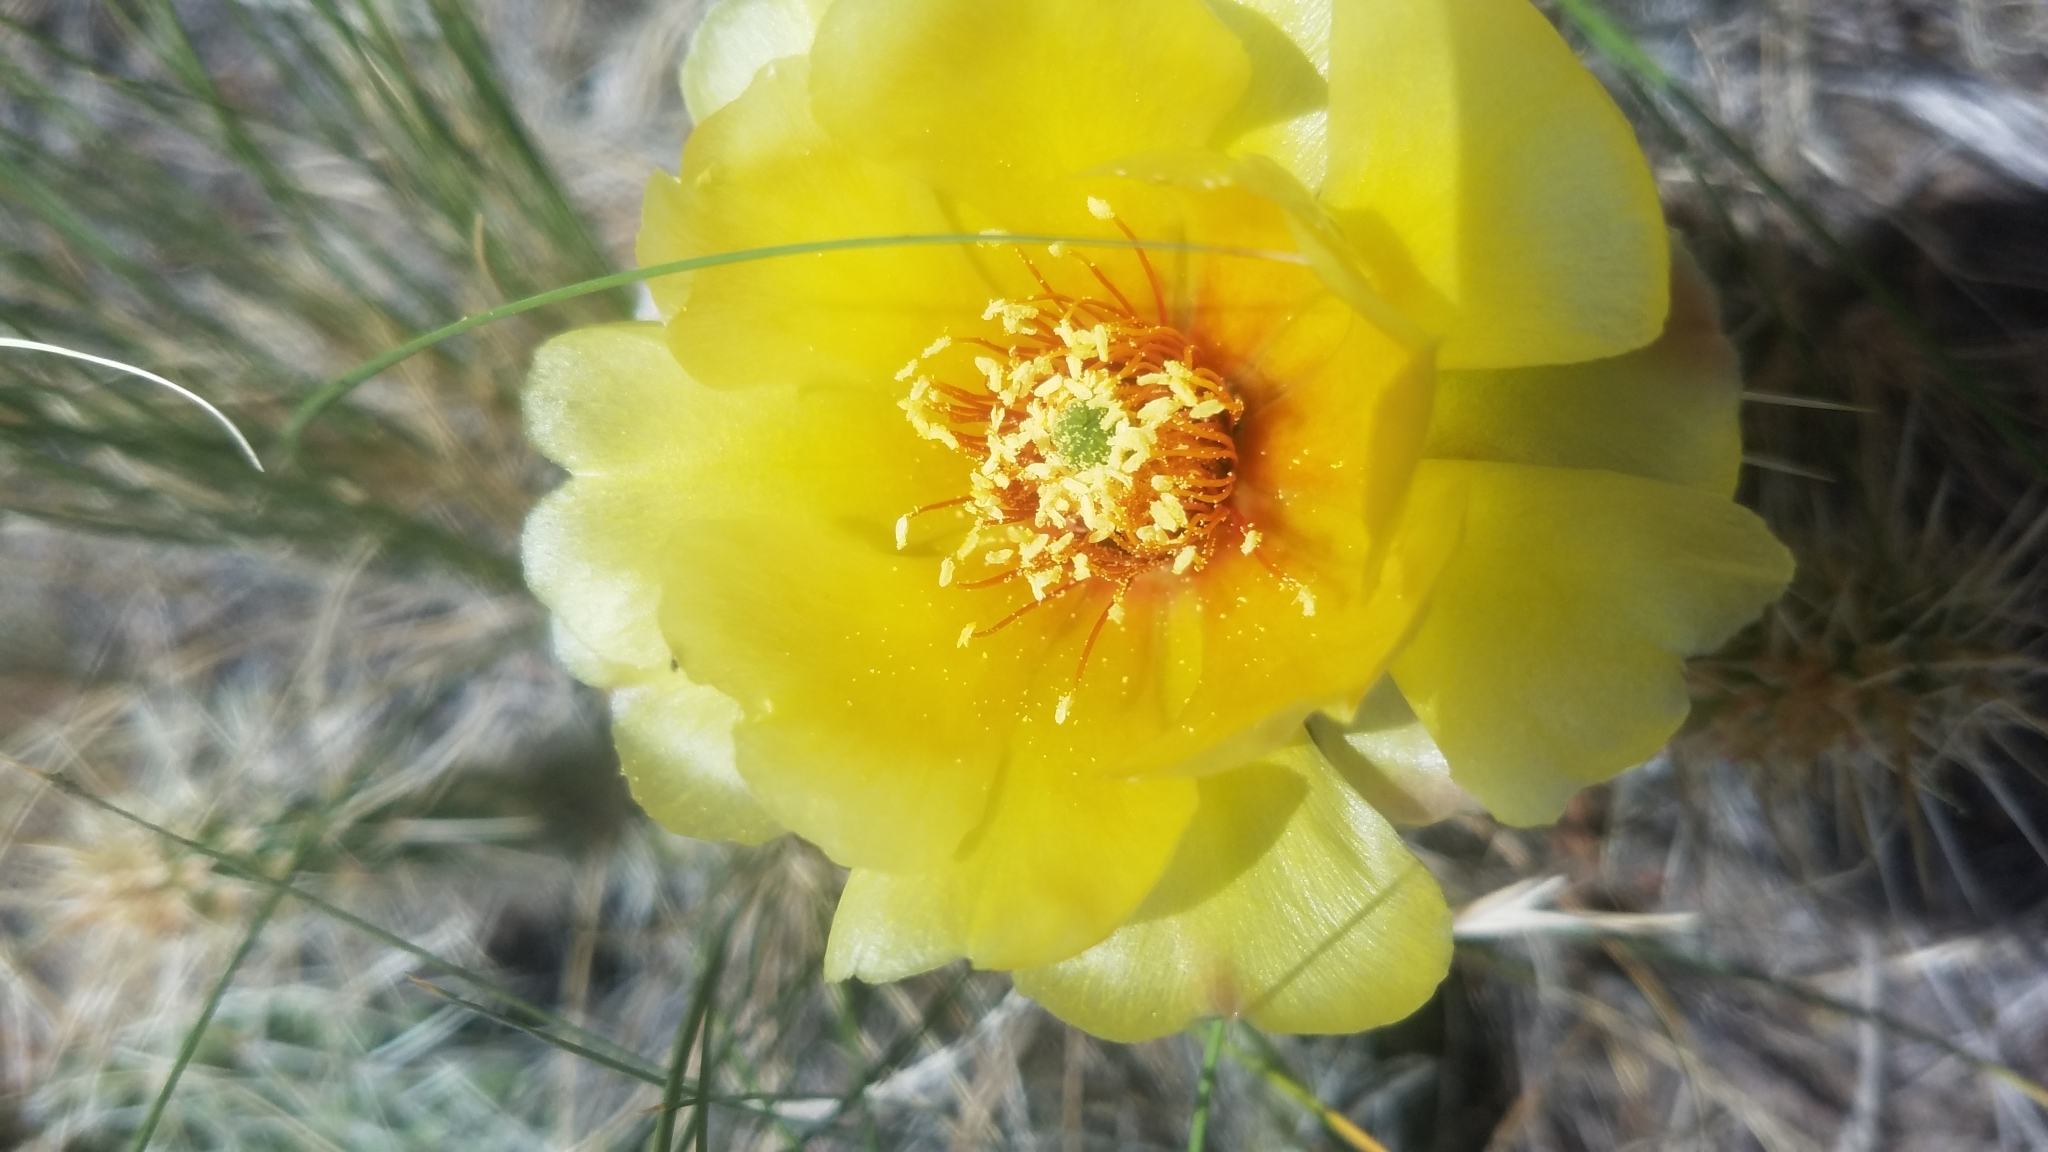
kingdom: Plantae
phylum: Tracheophyta
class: Magnoliopsida
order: Caryophyllales
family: Cactaceae
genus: Opuntia
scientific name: Opuntia polyacantha
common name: Plains prickly-pear
